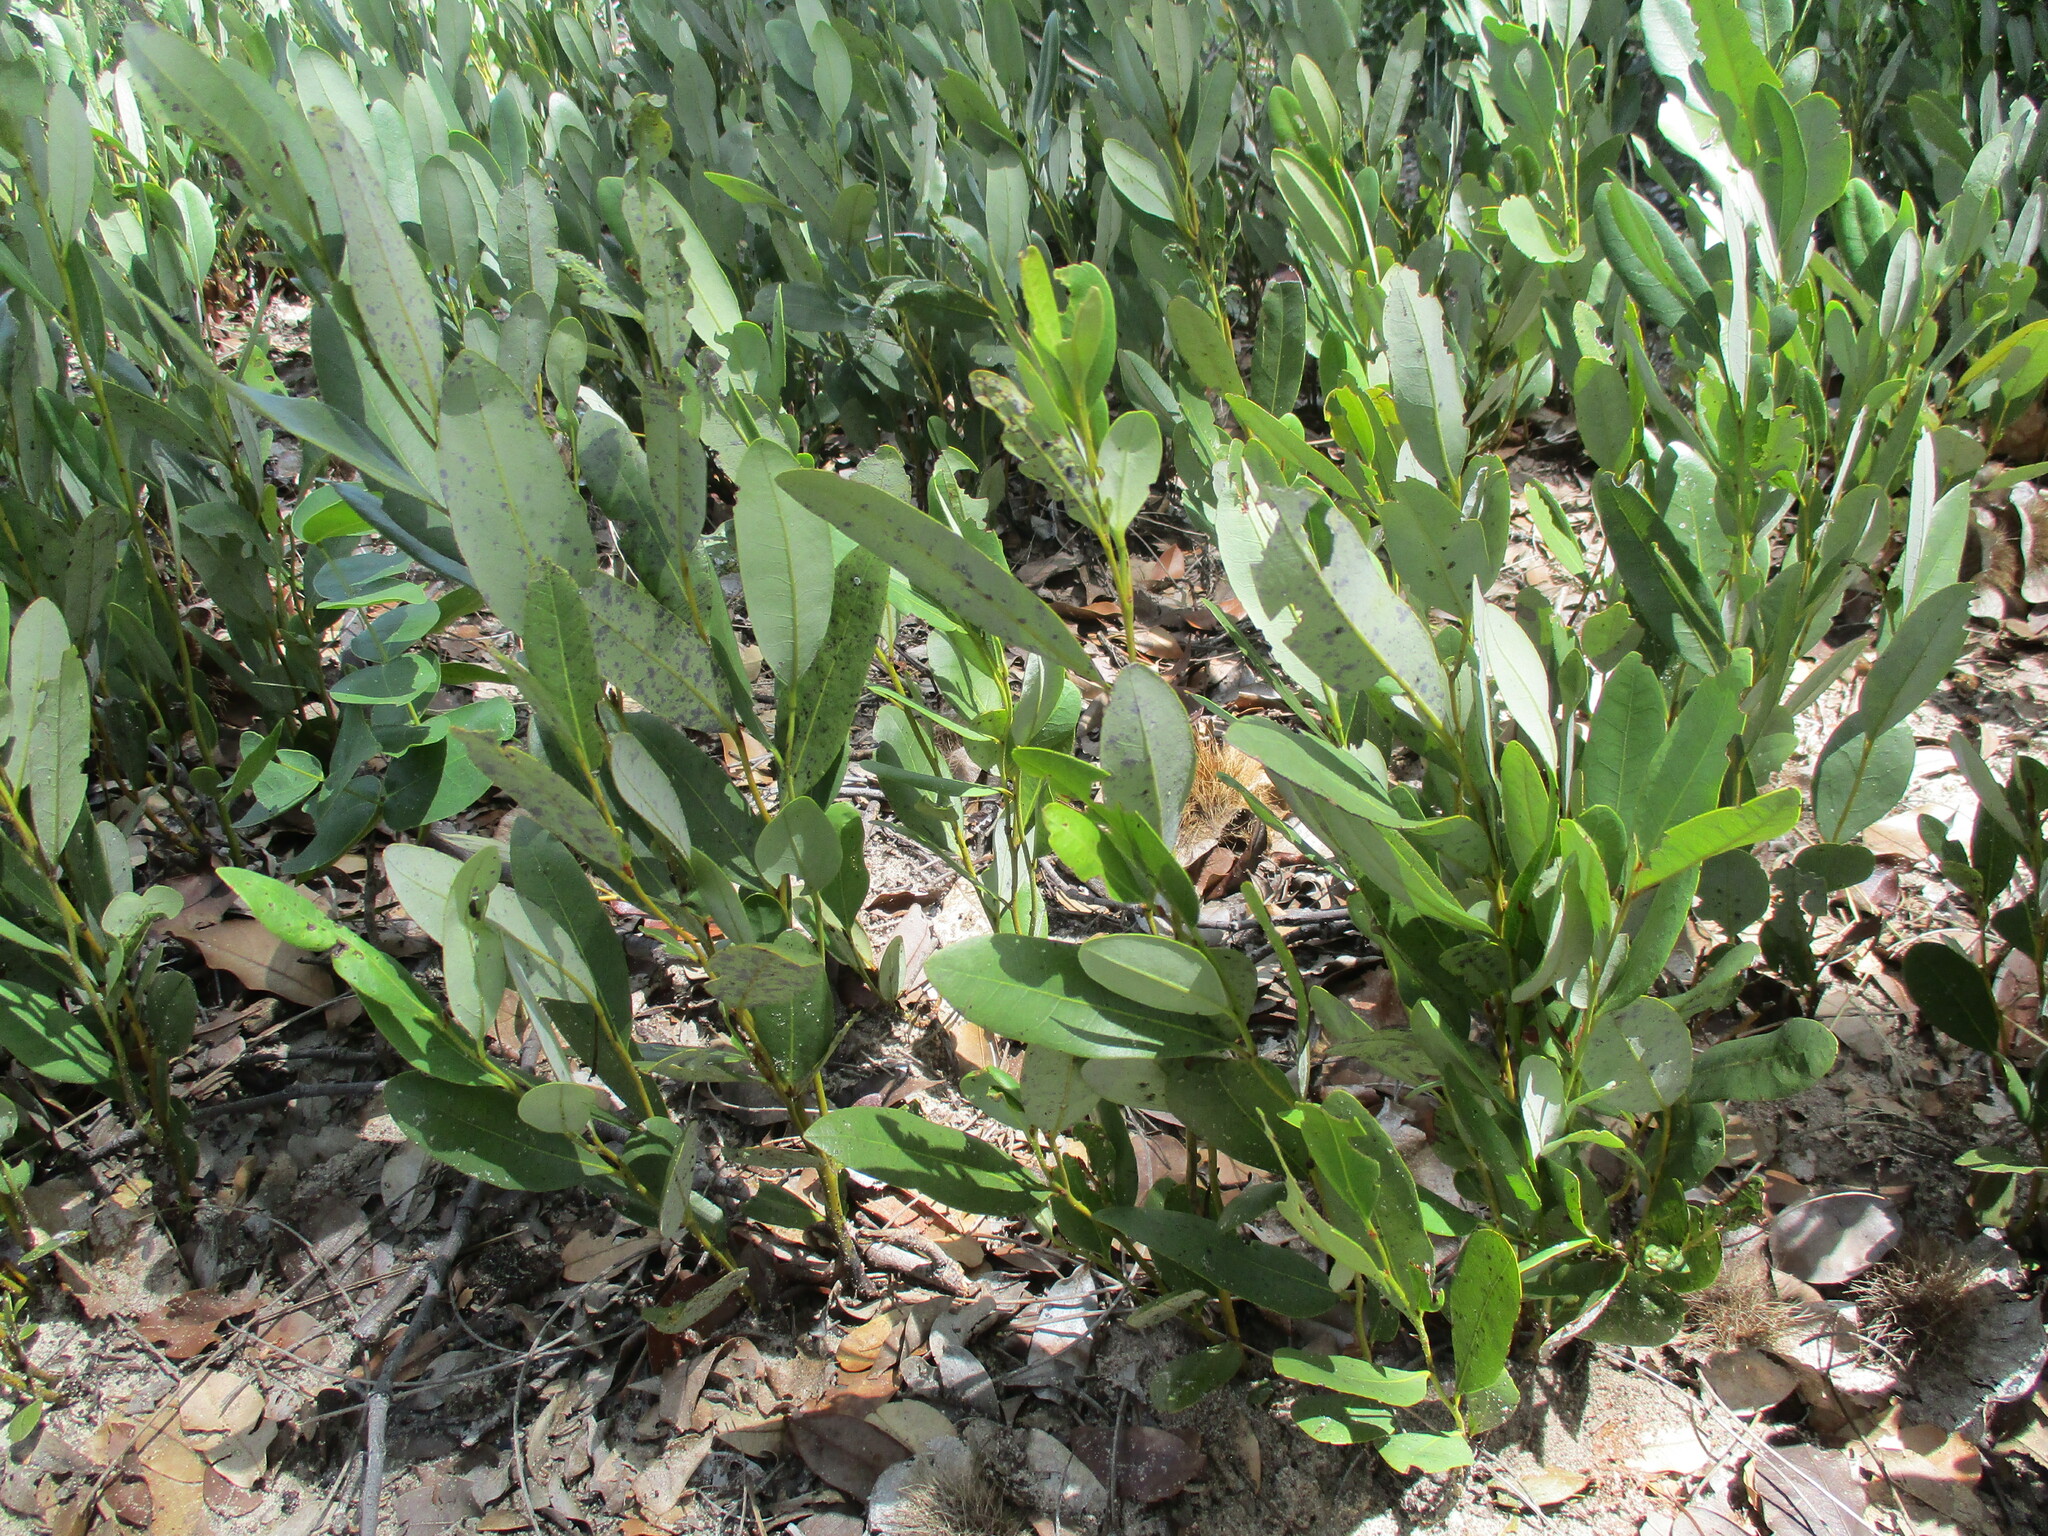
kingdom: Plantae
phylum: Tracheophyta
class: Magnoliopsida
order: Ericales
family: Ebenaceae
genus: Diospyros
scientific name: Diospyros chamaethamnus
